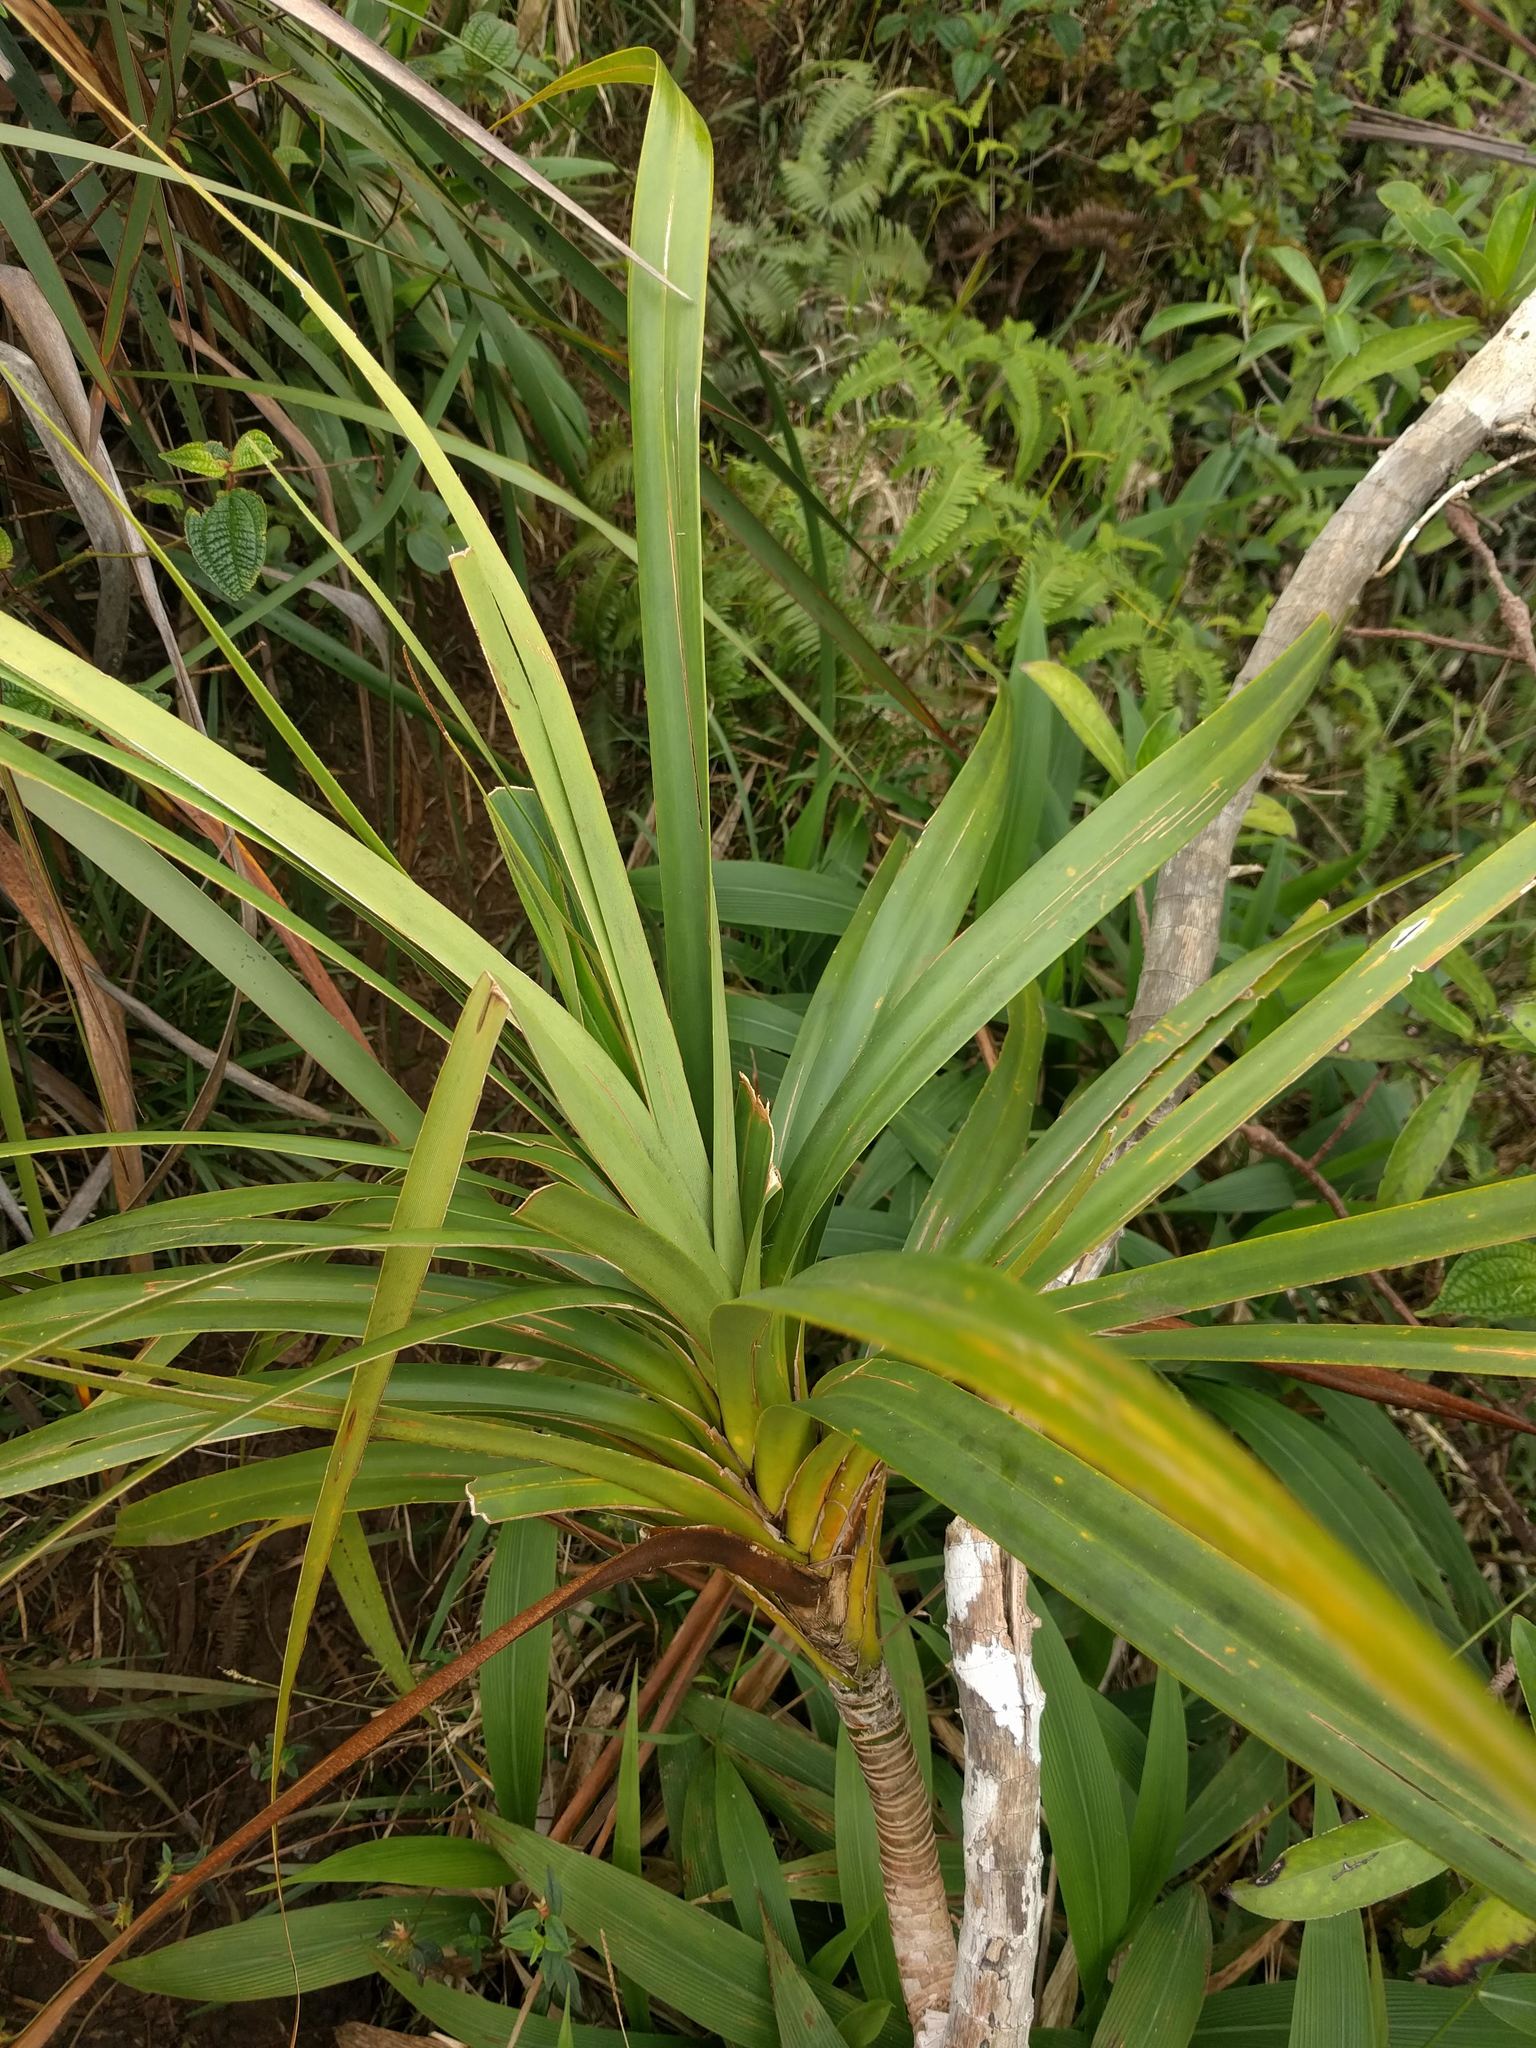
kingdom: Plantae
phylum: Tracheophyta
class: Liliopsida
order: Pandanales
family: Pandanaceae
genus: Freycinetia
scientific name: Freycinetia arborea
